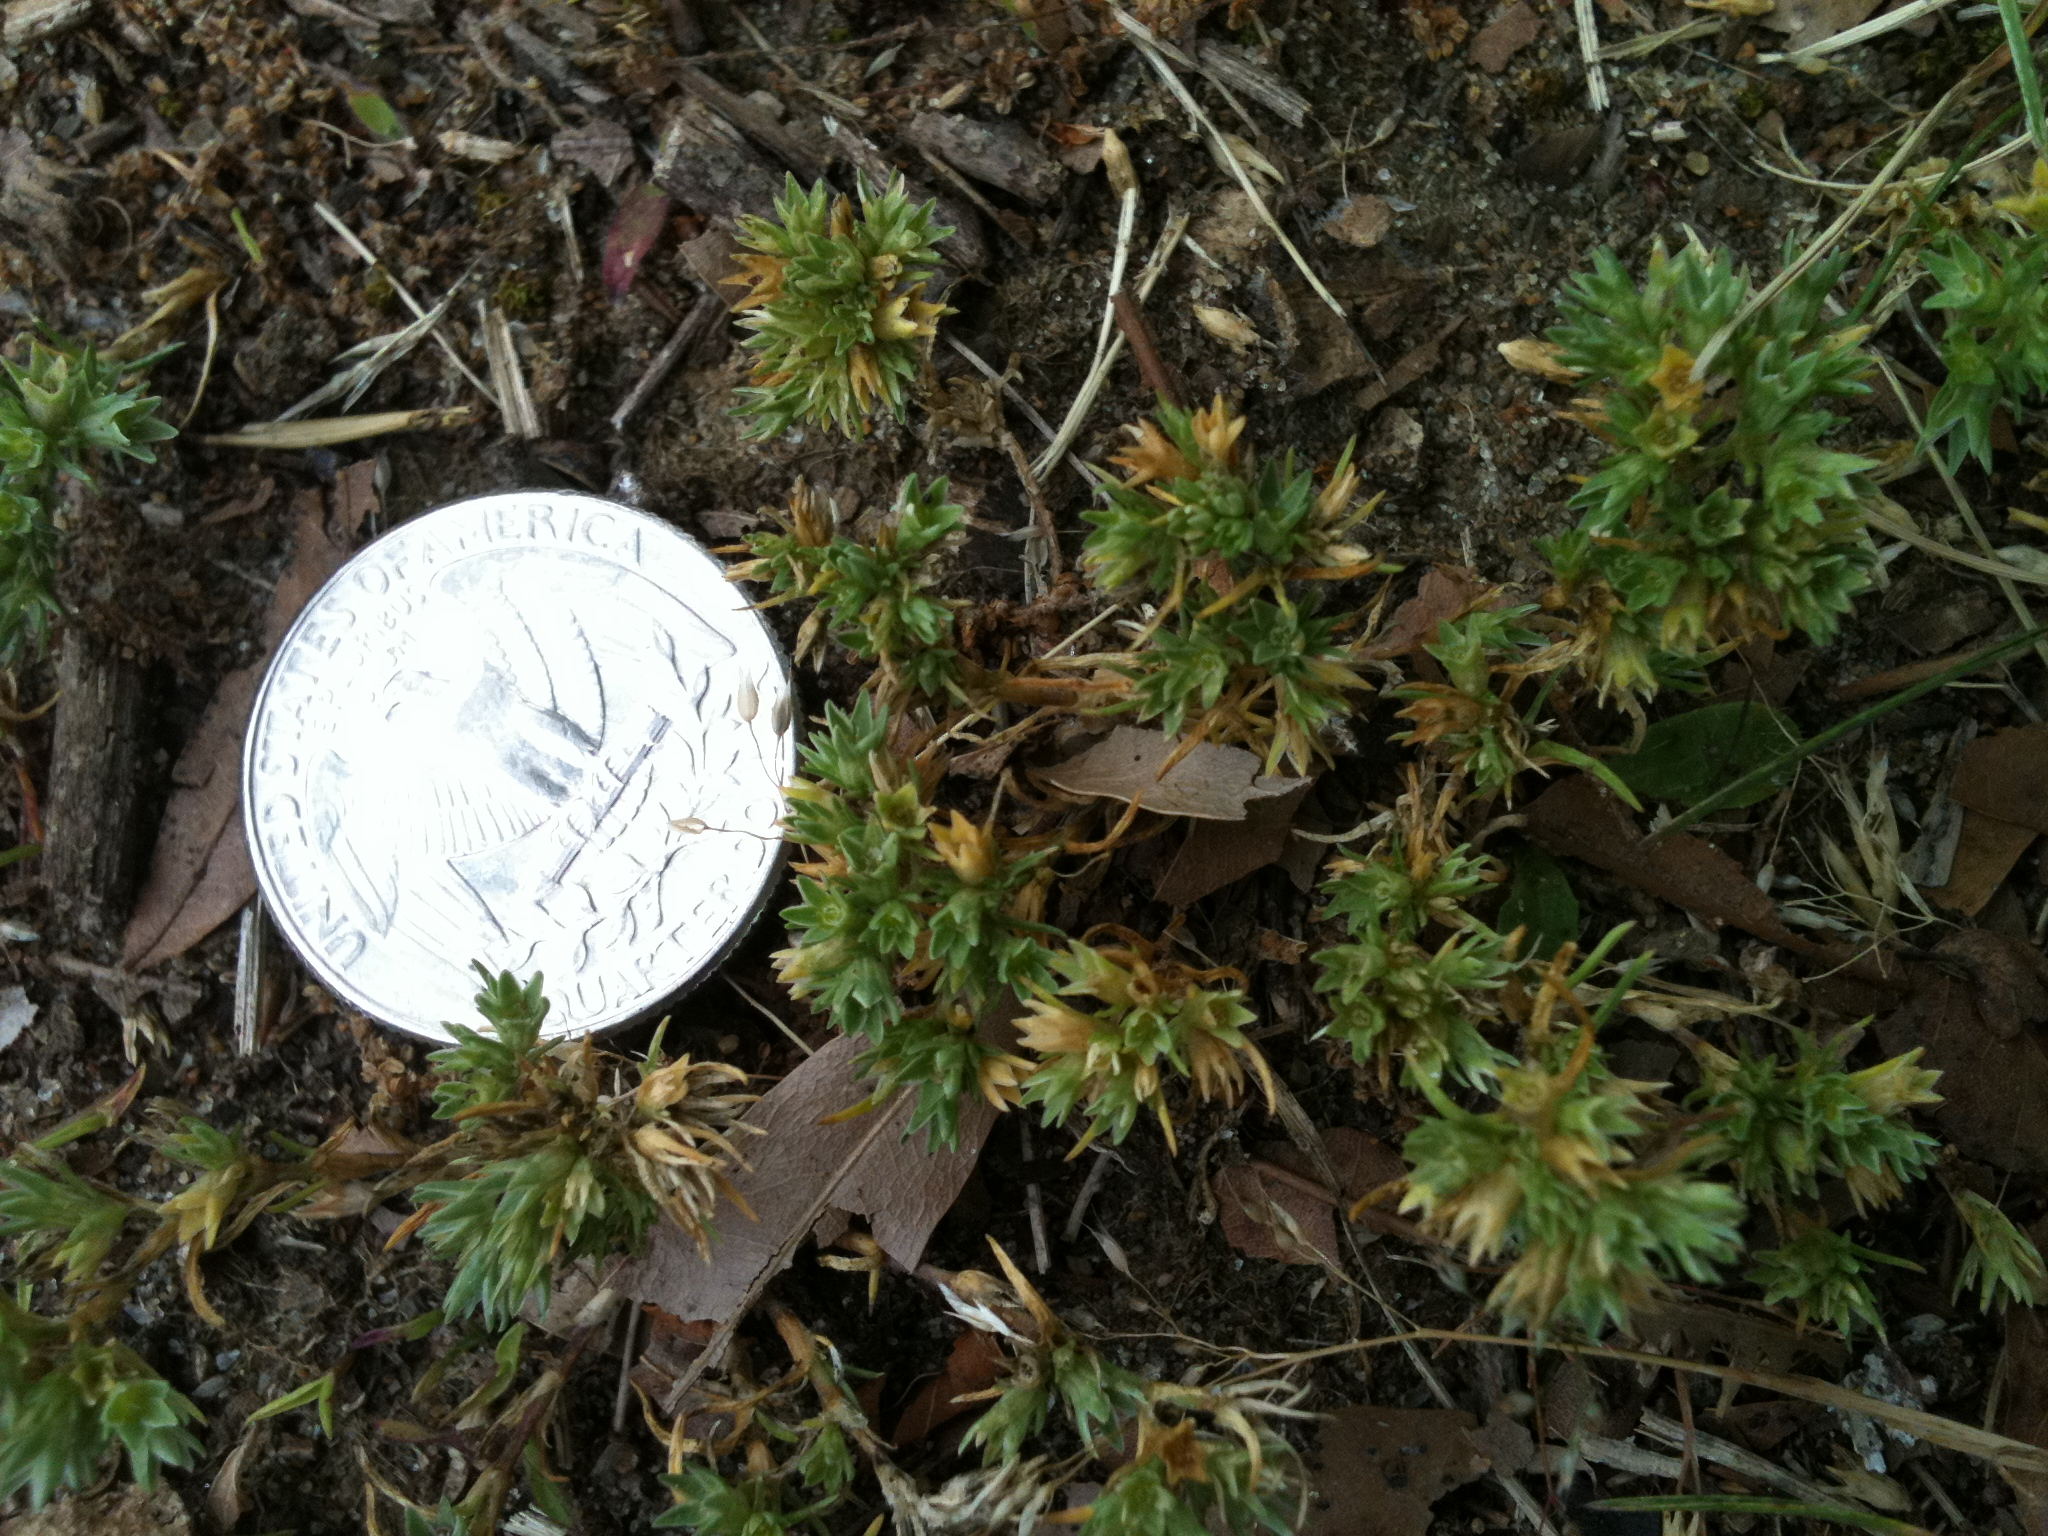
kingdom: Plantae
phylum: Tracheophyta
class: Magnoliopsida
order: Caryophyllales
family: Caryophyllaceae
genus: Scleranthus
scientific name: Scleranthus annuus
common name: Annual knawel
